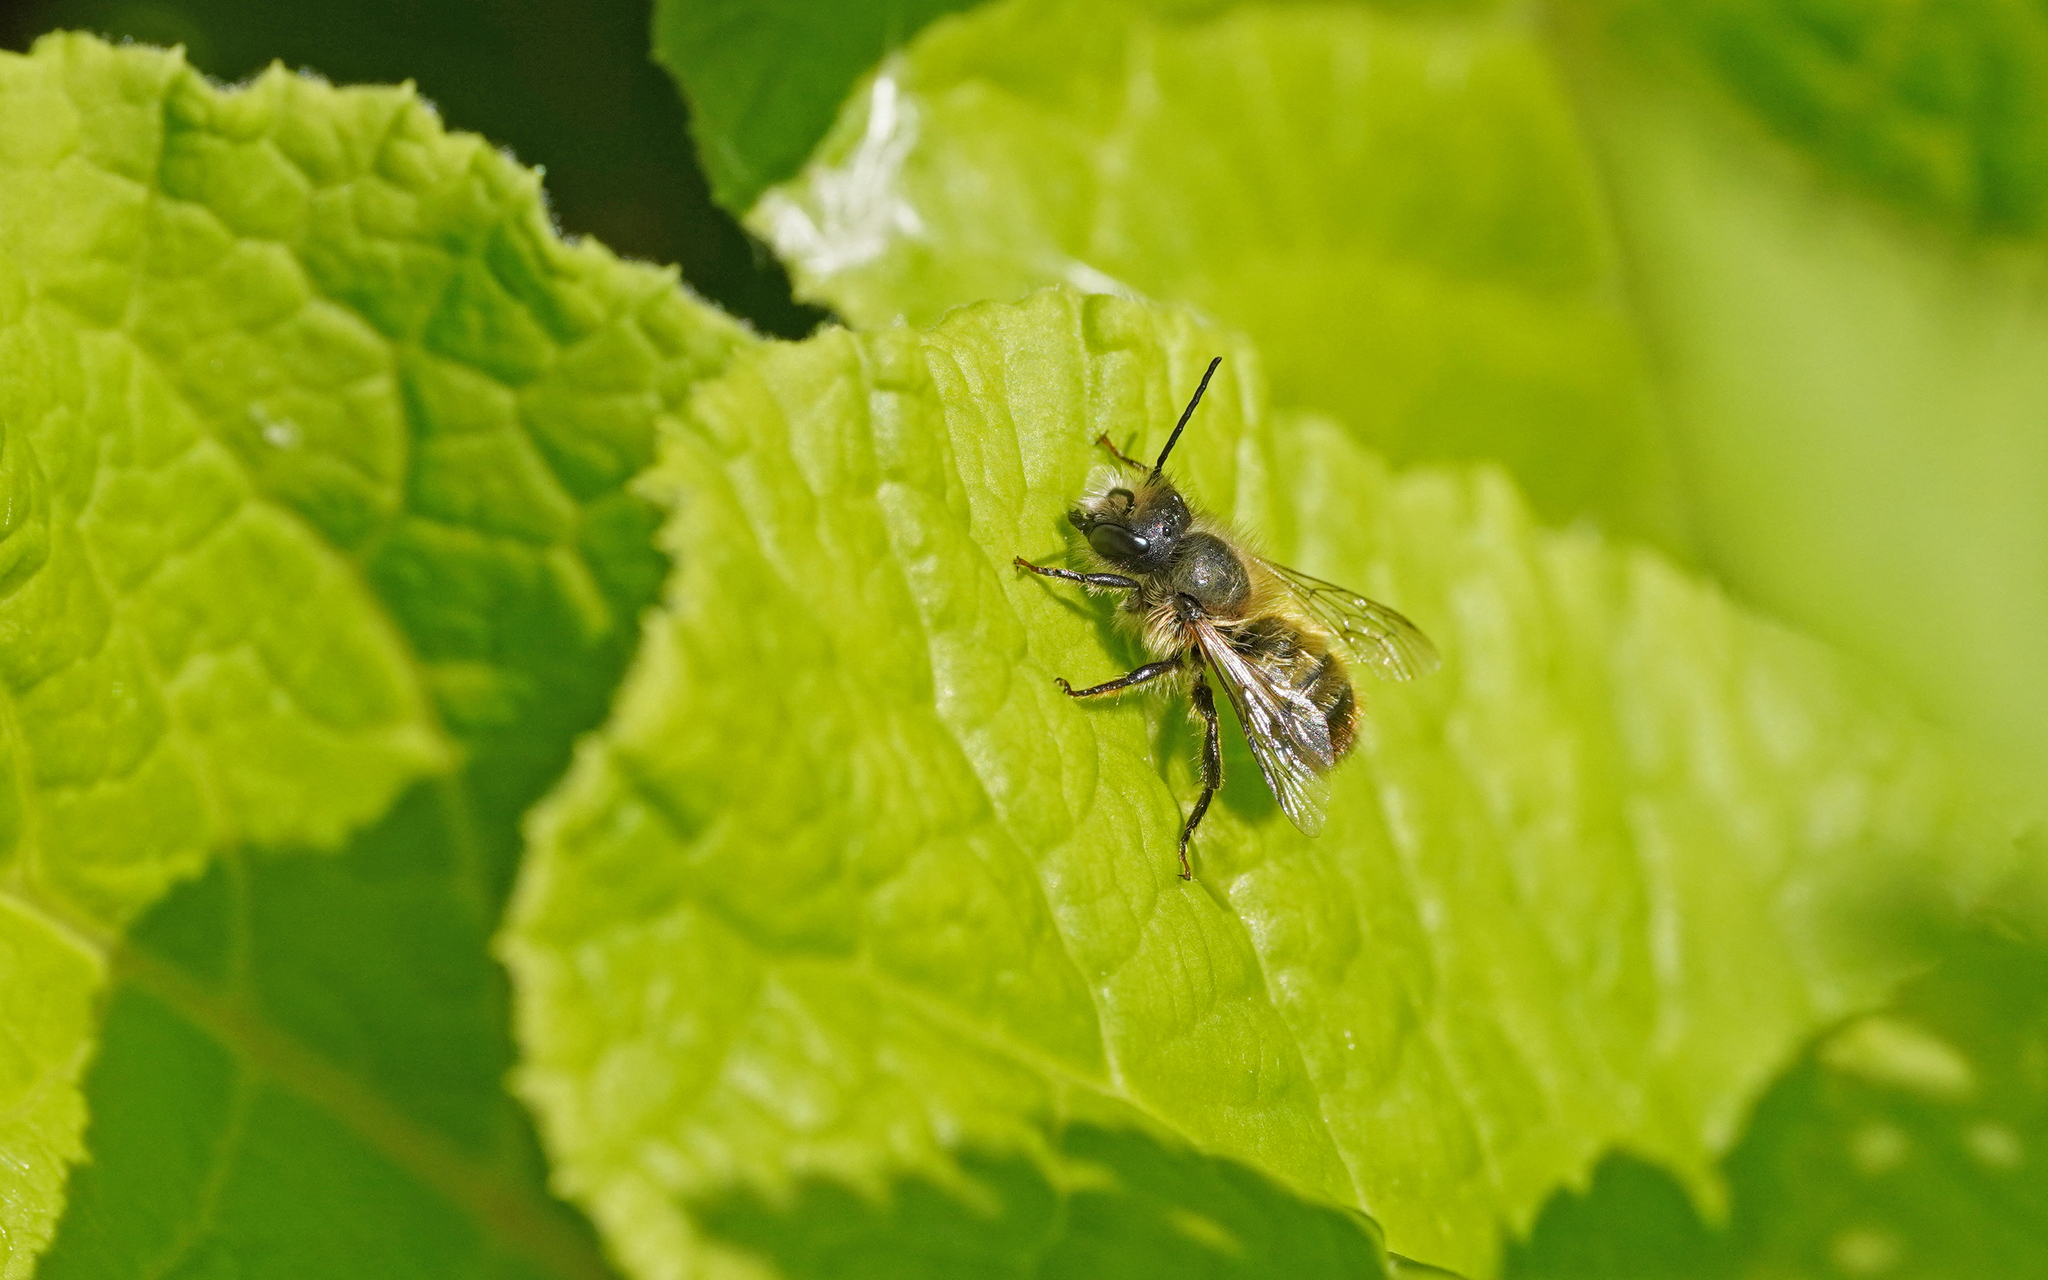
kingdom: Animalia
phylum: Arthropoda
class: Insecta
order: Hymenoptera
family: Megachilidae
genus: Osmia
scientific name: Osmia bicornis
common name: Red mason bee
